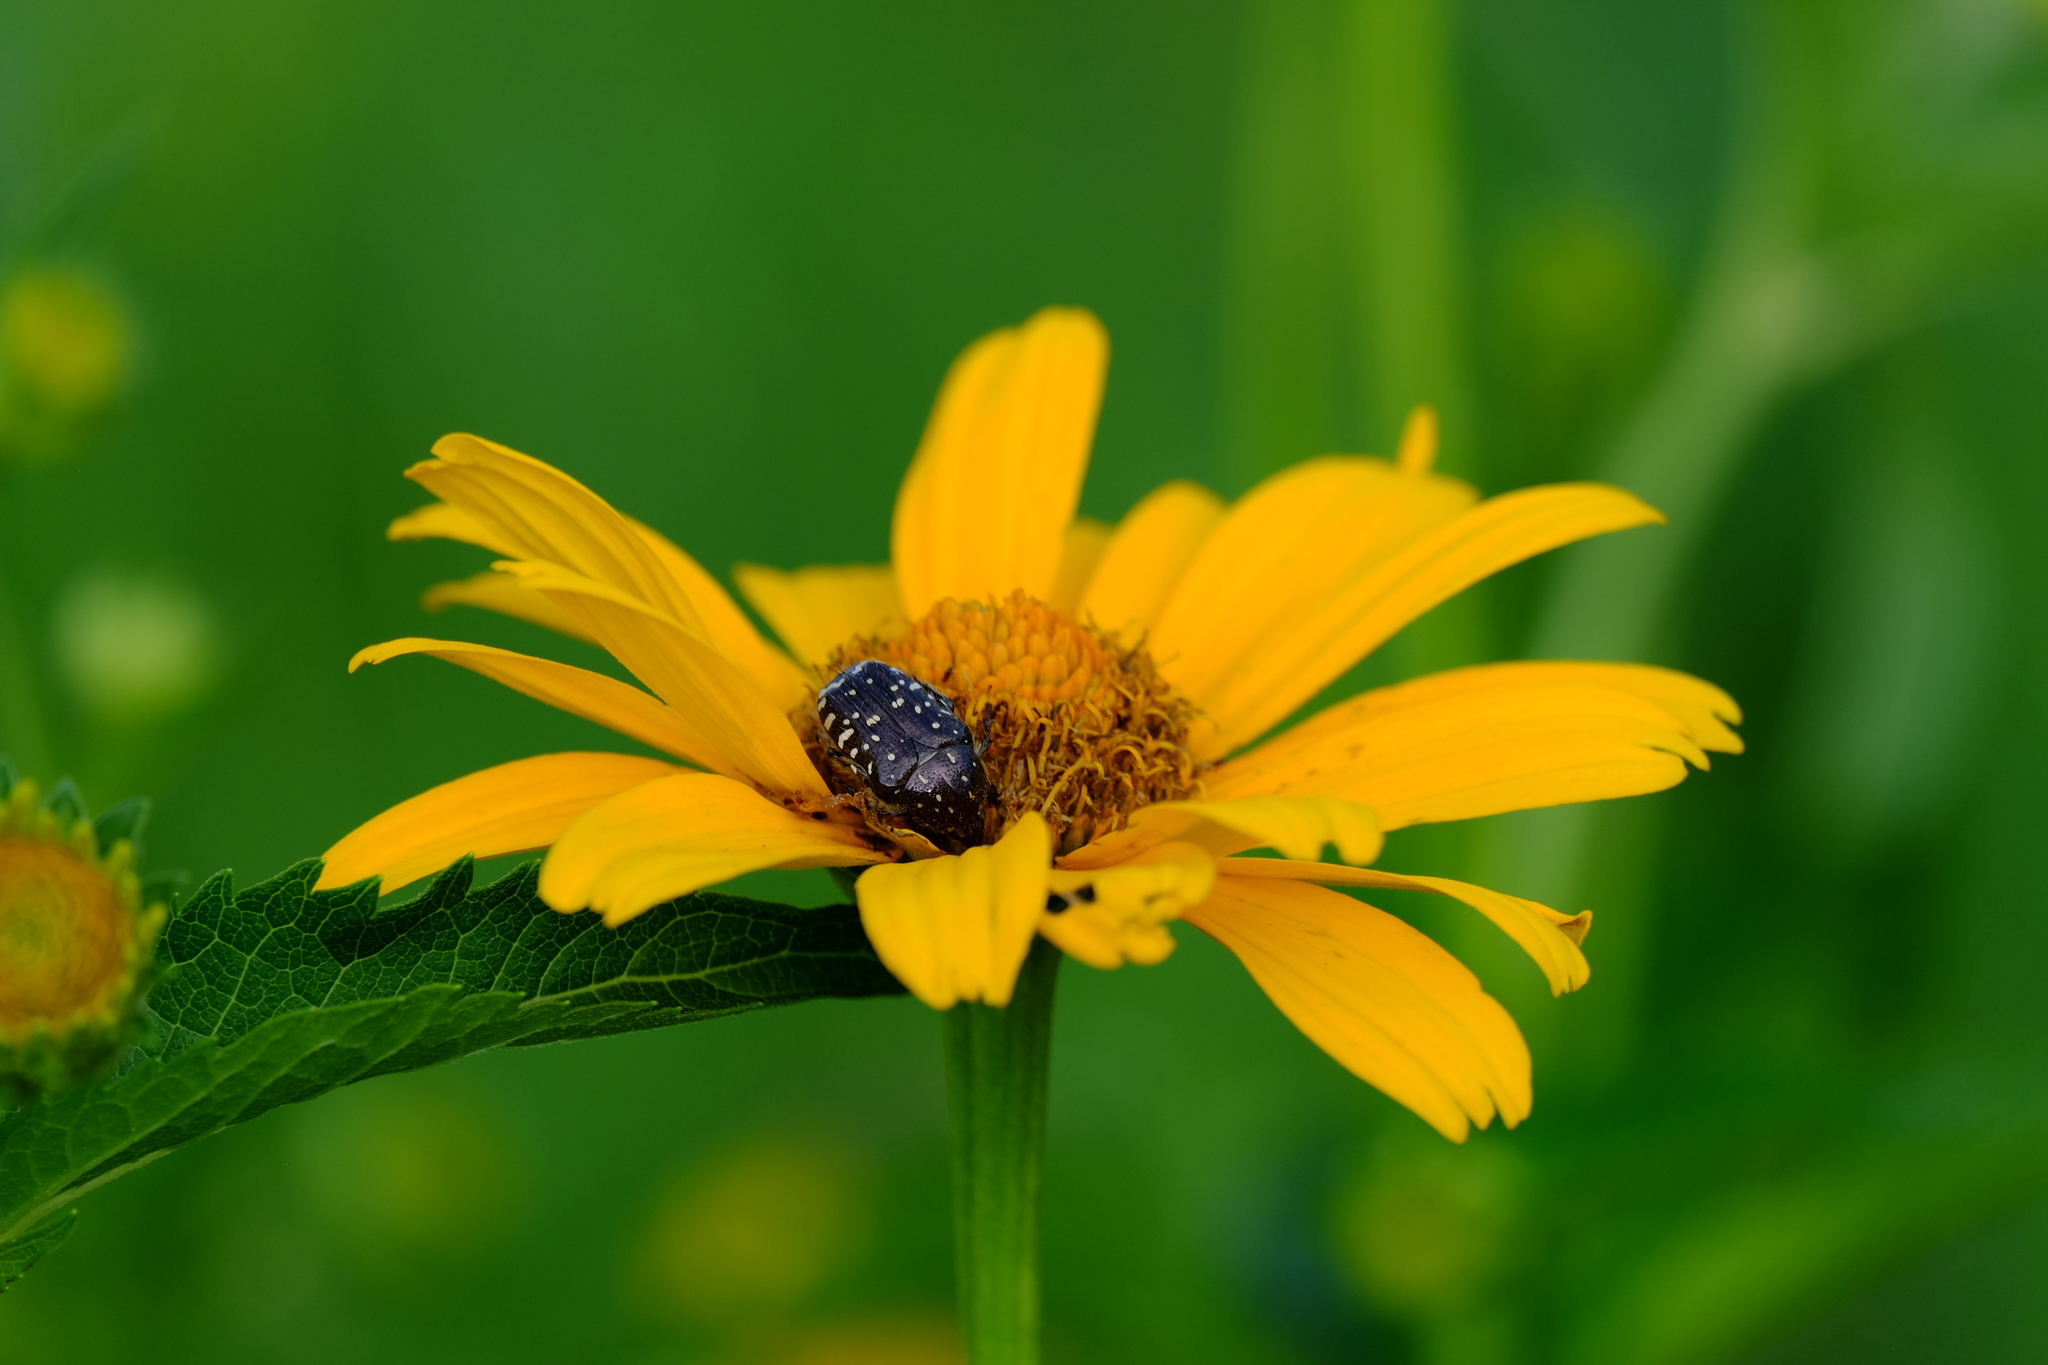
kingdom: Animalia
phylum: Arthropoda
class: Insecta
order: Coleoptera
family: Scarabaeidae
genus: Oxythyrea
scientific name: Oxythyrea funesta
